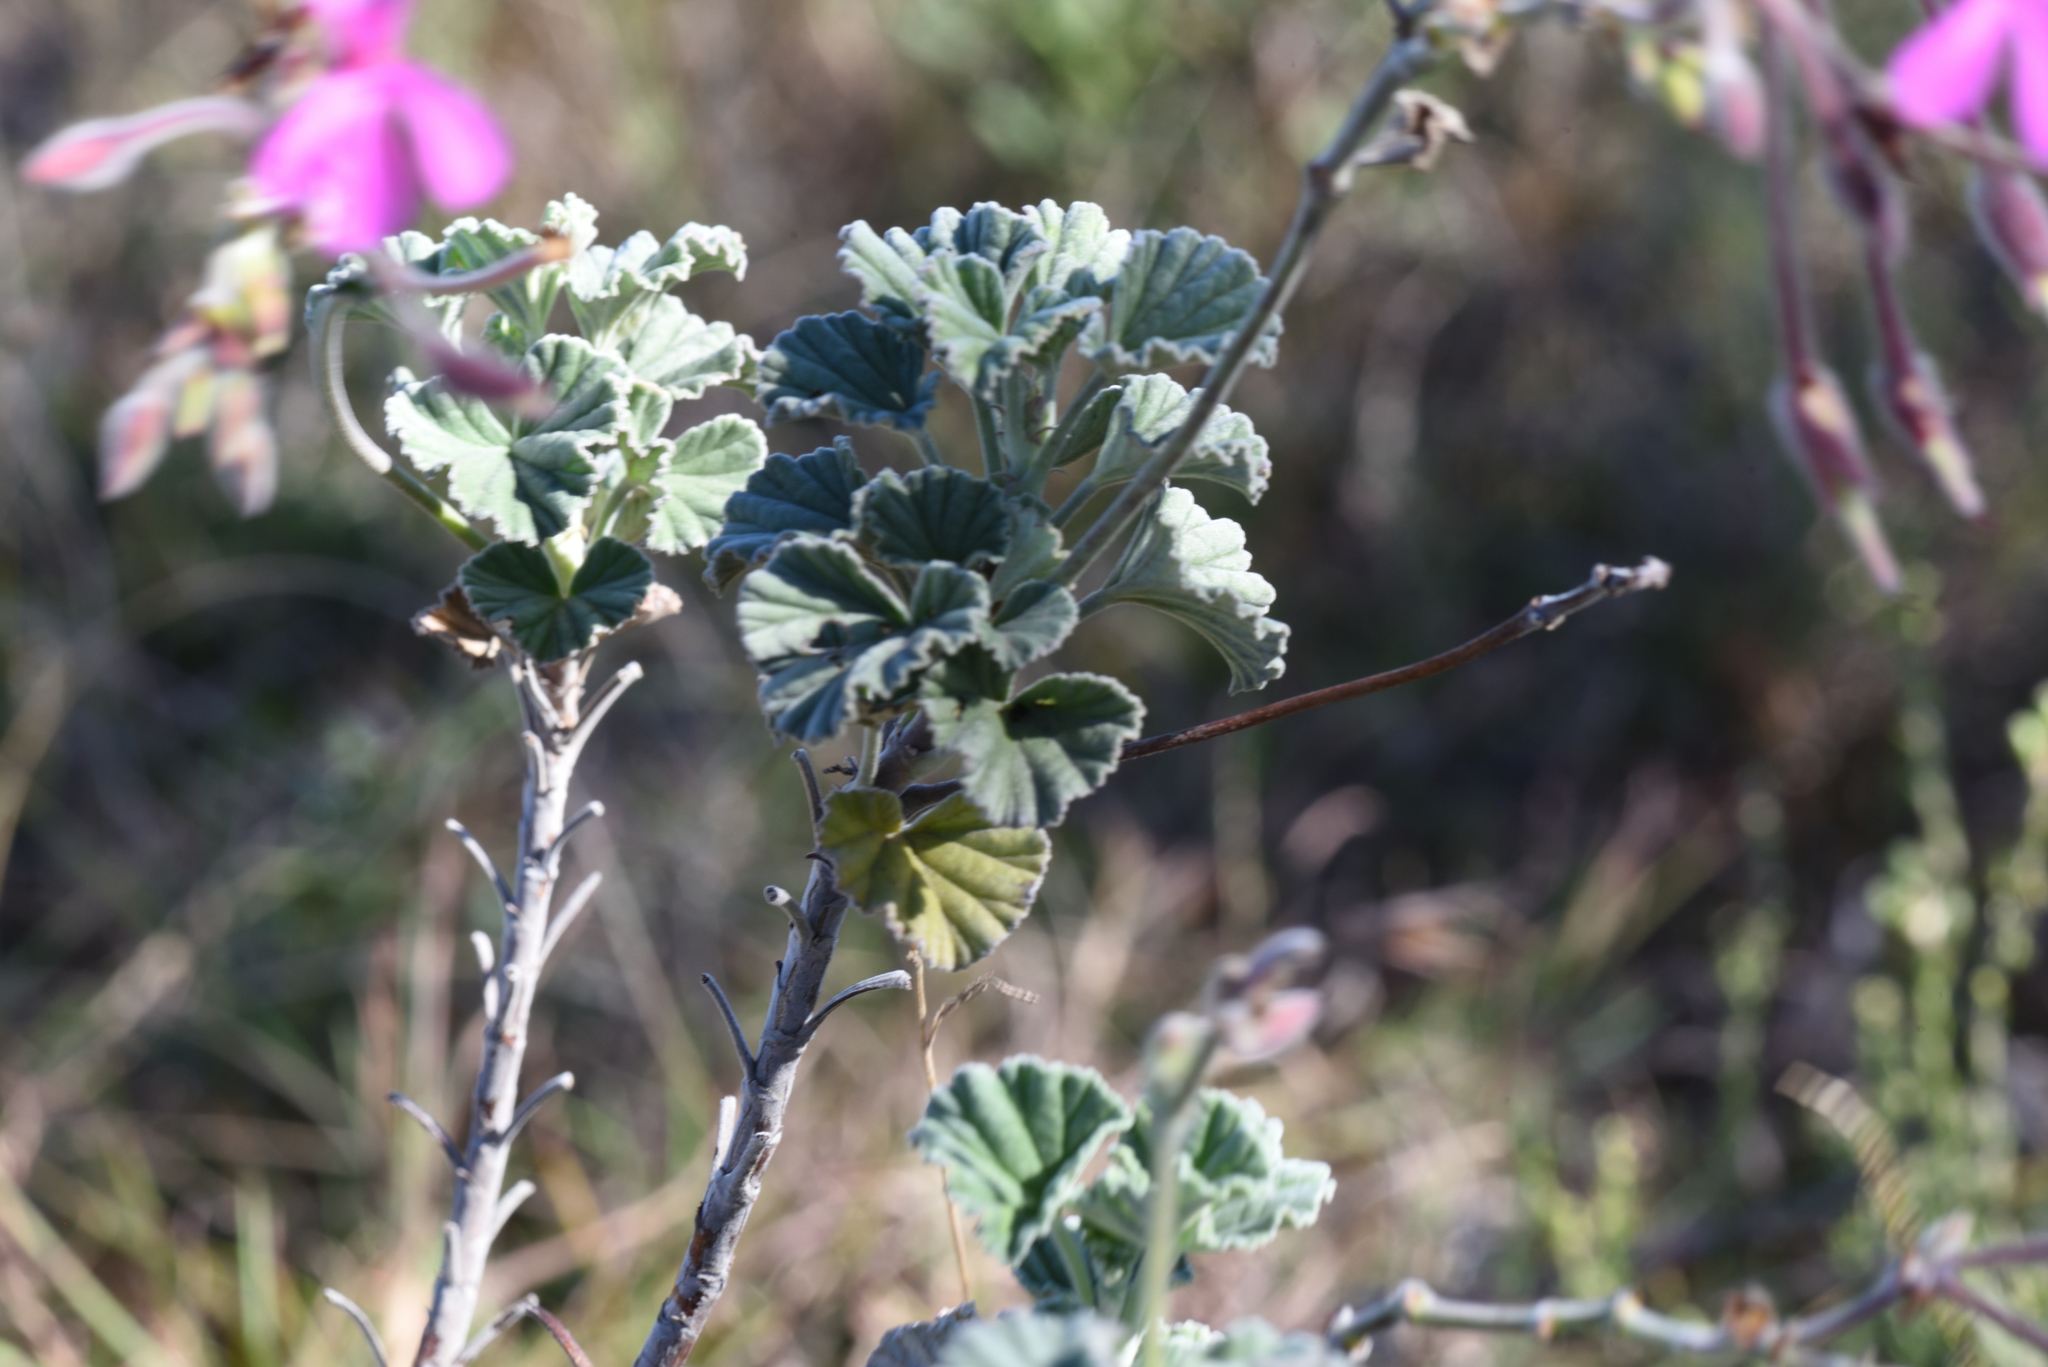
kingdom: Plantae
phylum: Tracheophyta
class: Magnoliopsida
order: Geraniales
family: Geraniaceae
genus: Pelargonium
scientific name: Pelargonium reniforme
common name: Kidney-leaf pelargonium
